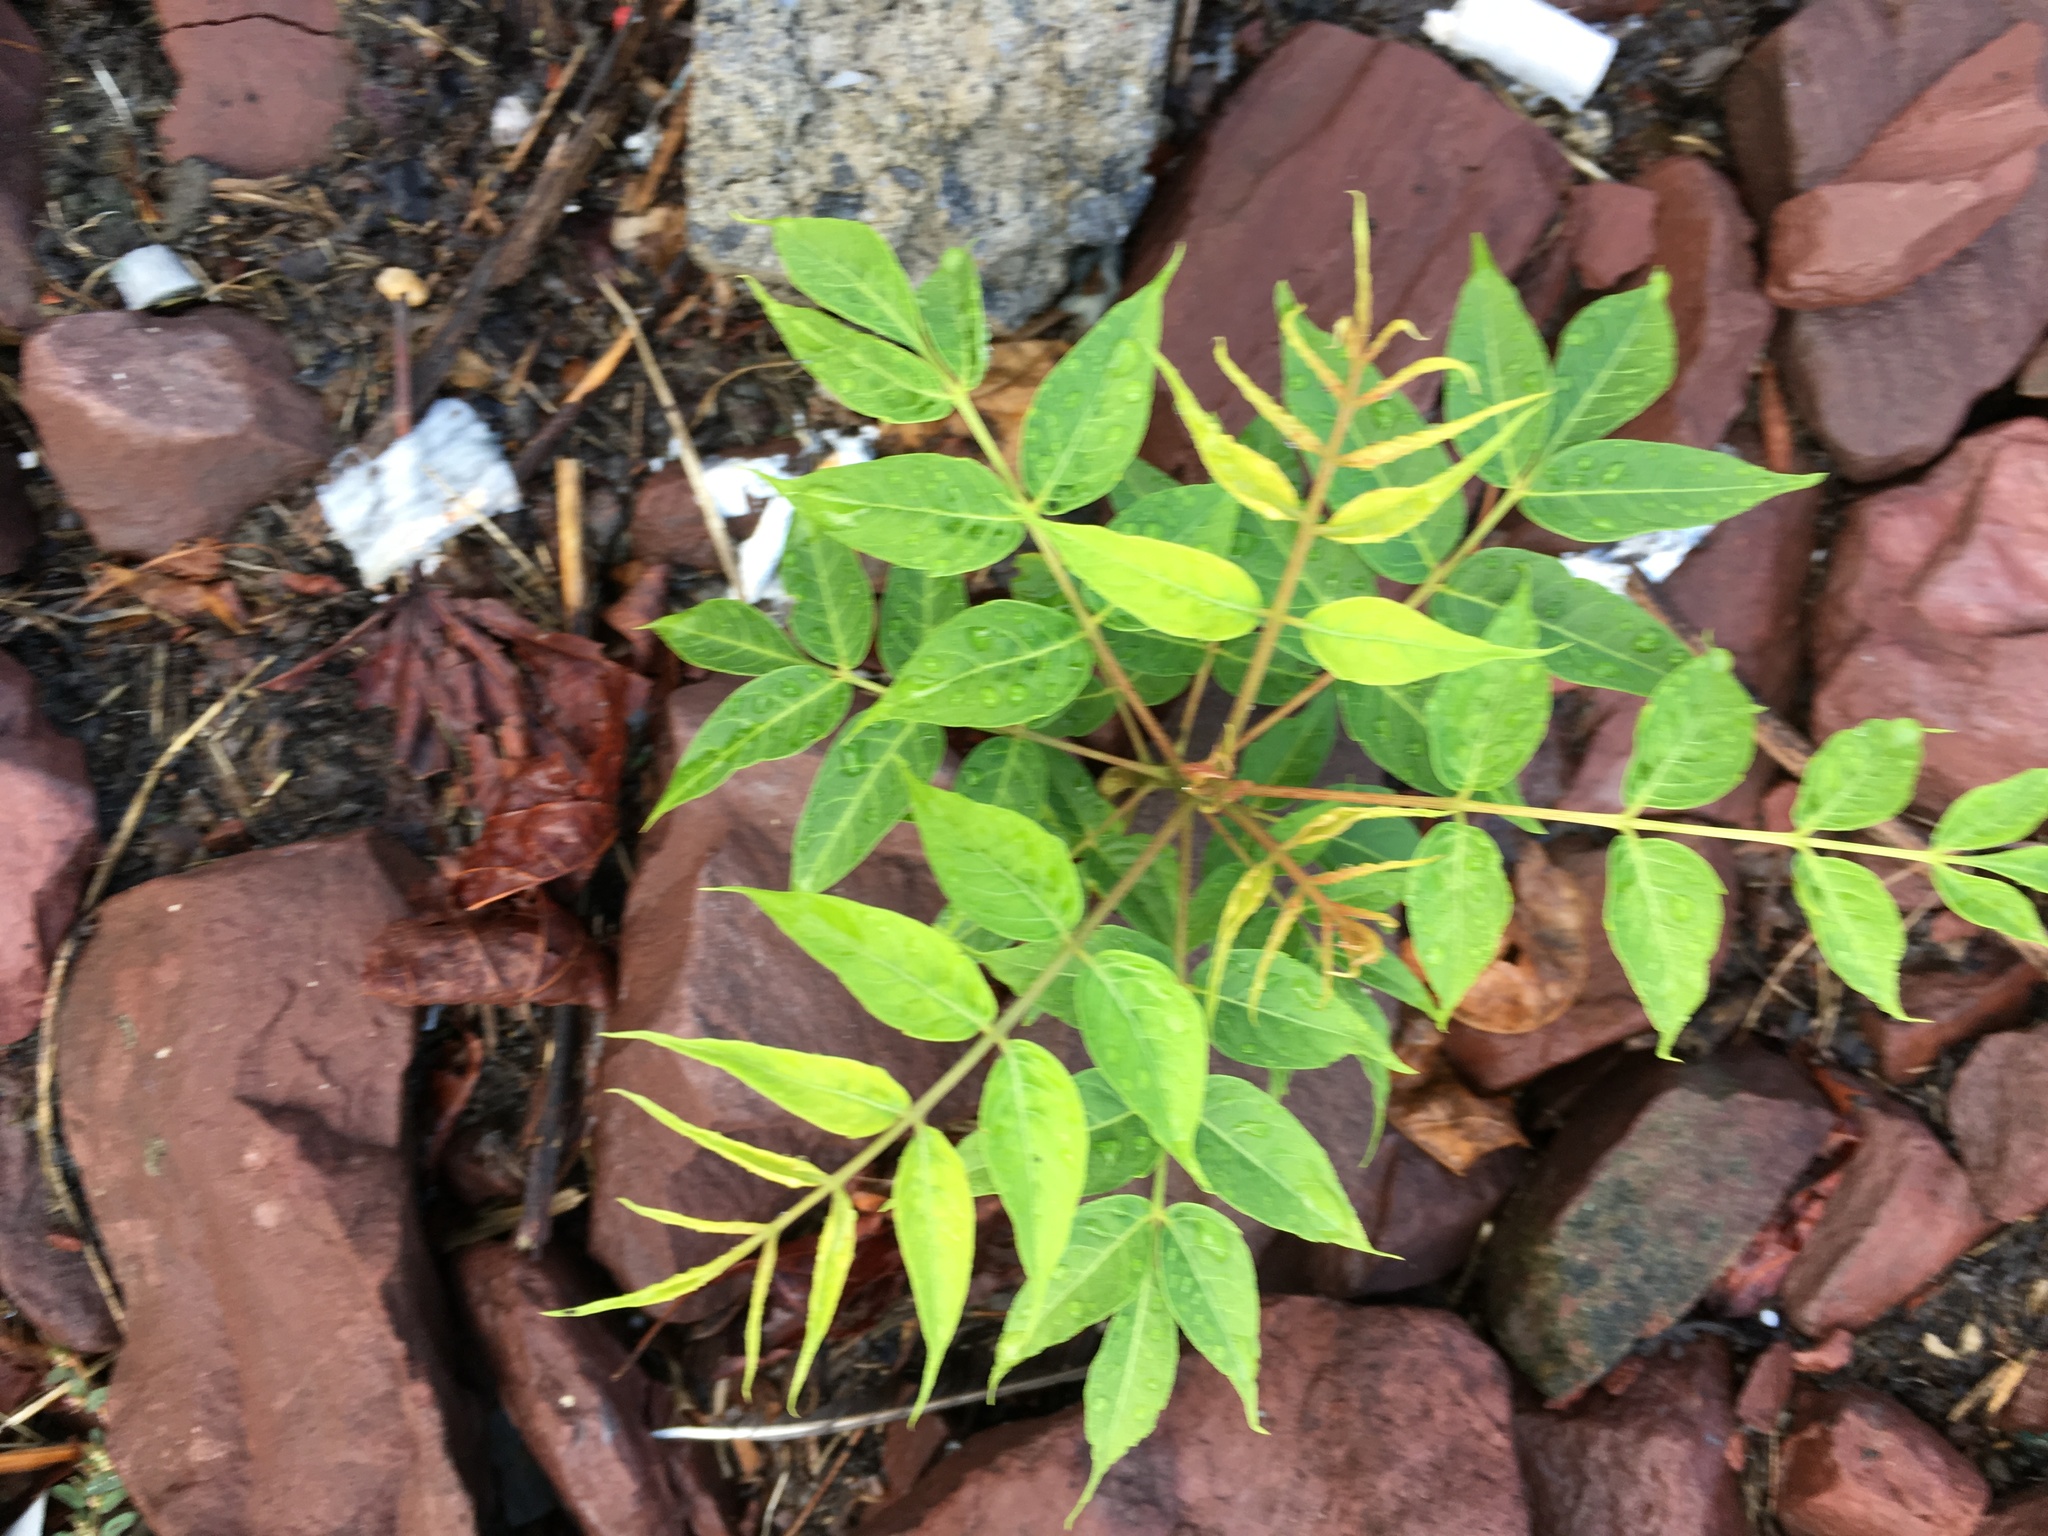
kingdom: Plantae
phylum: Tracheophyta
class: Magnoliopsida
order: Sapindales
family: Simaroubaceae
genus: Ailanthus
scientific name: Ailanthus altissima
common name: Tree-of-heaven
